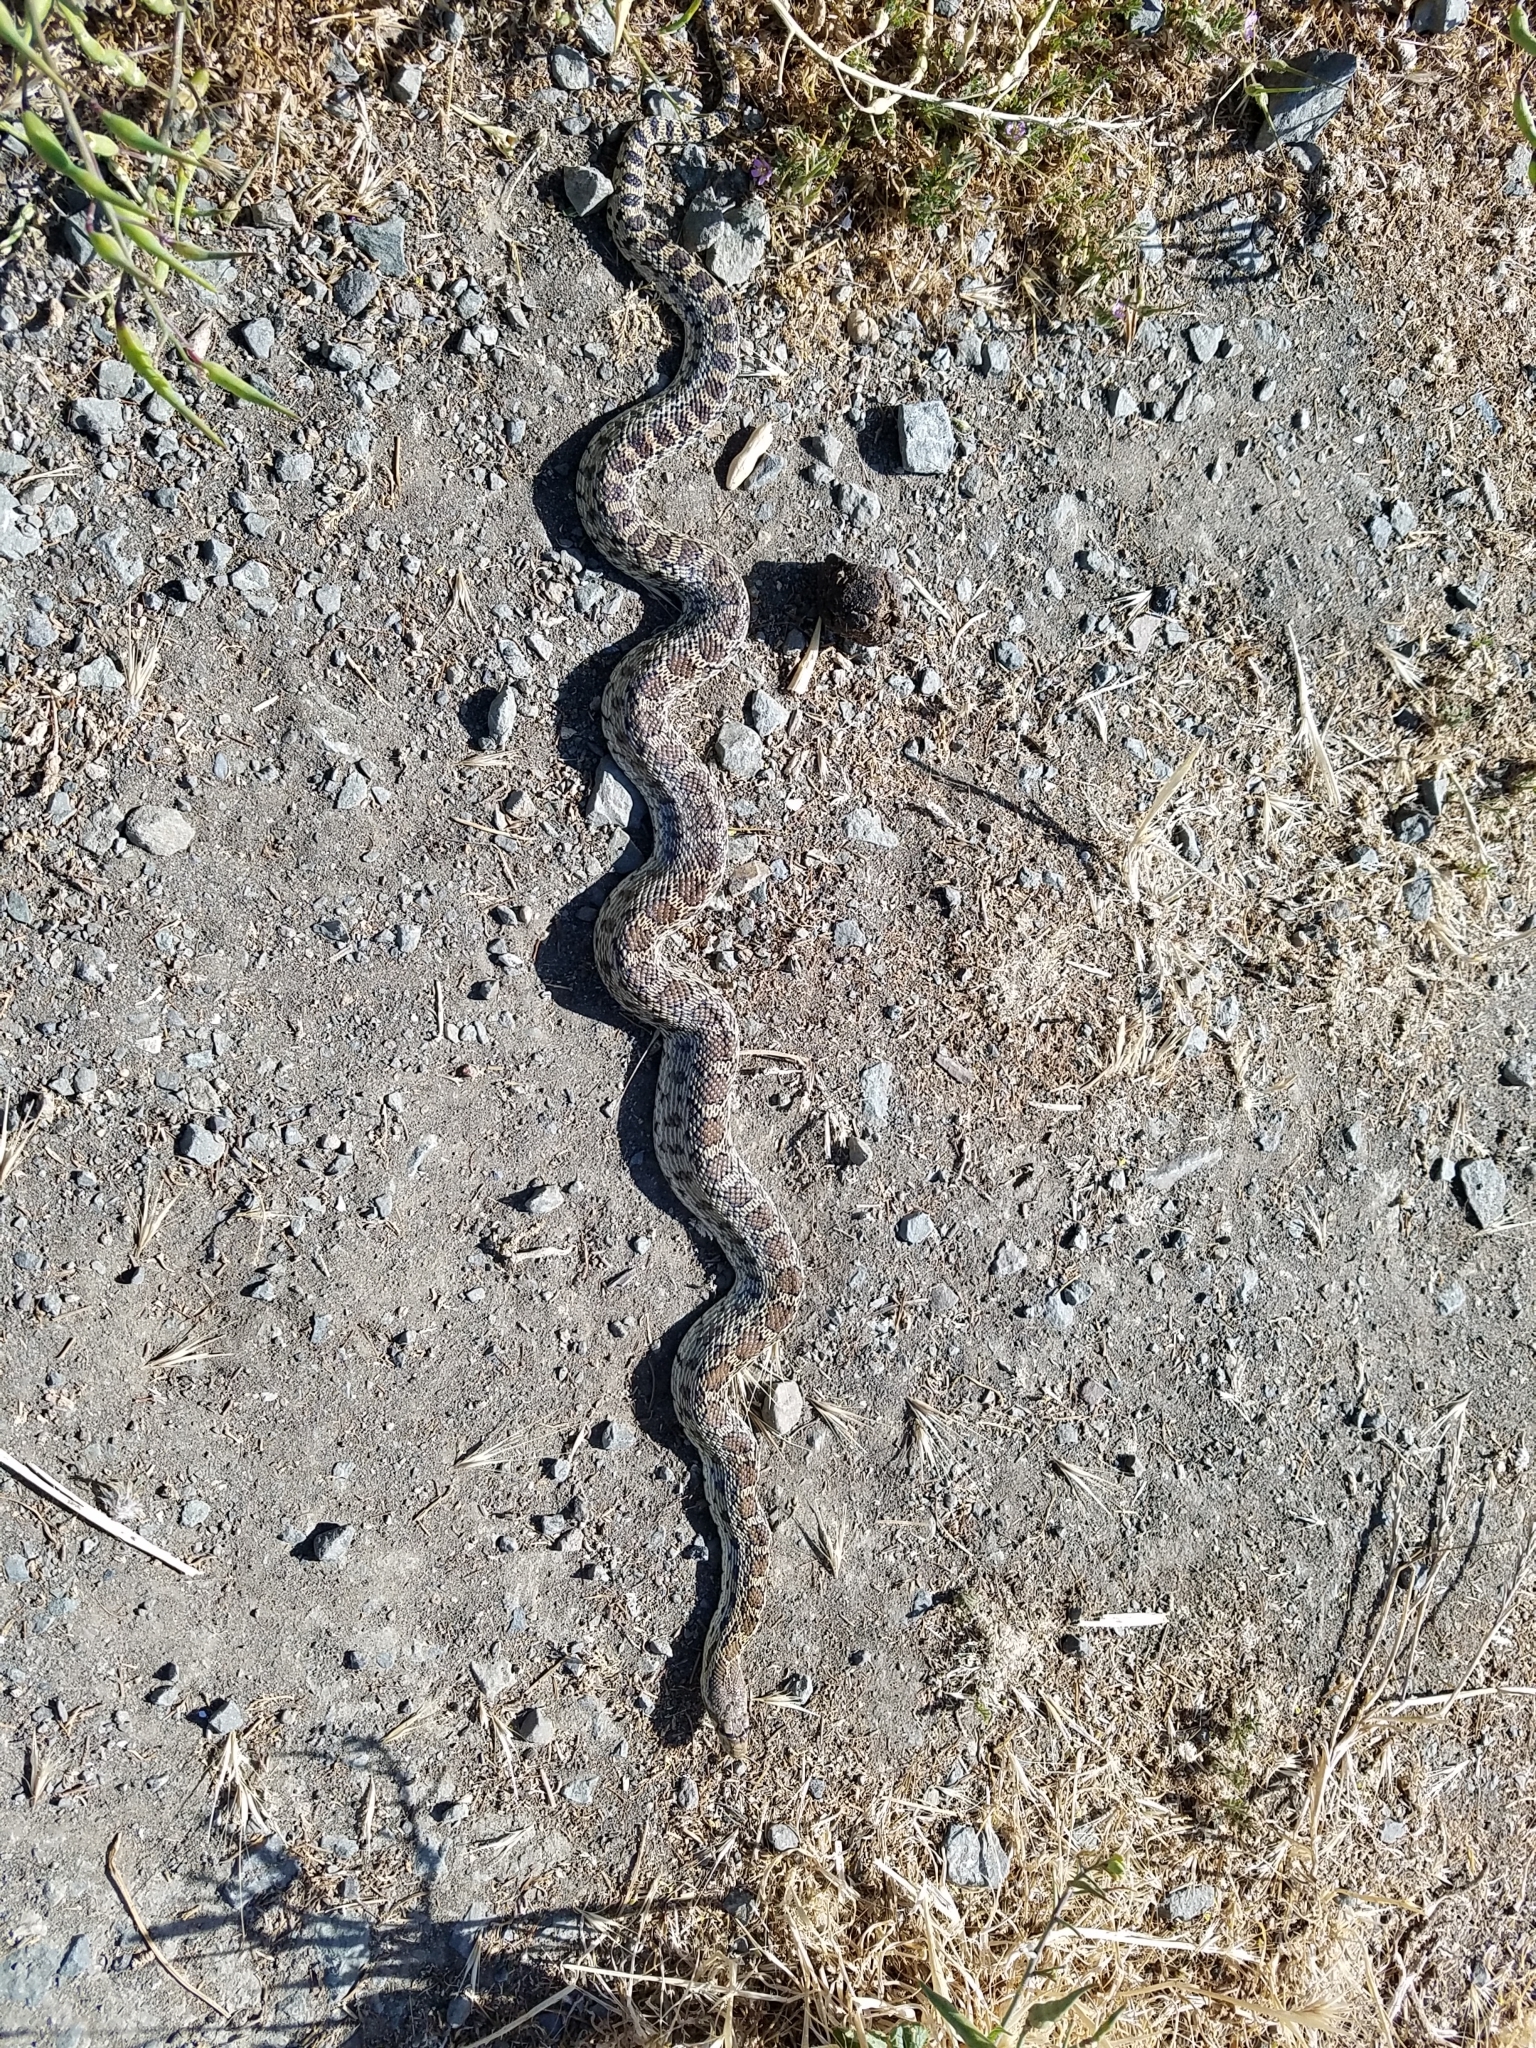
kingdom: Animalia
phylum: Chordata
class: Squamata
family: Colubridae
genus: Pituophis
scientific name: Pituophis catenifer
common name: Gopher snake
